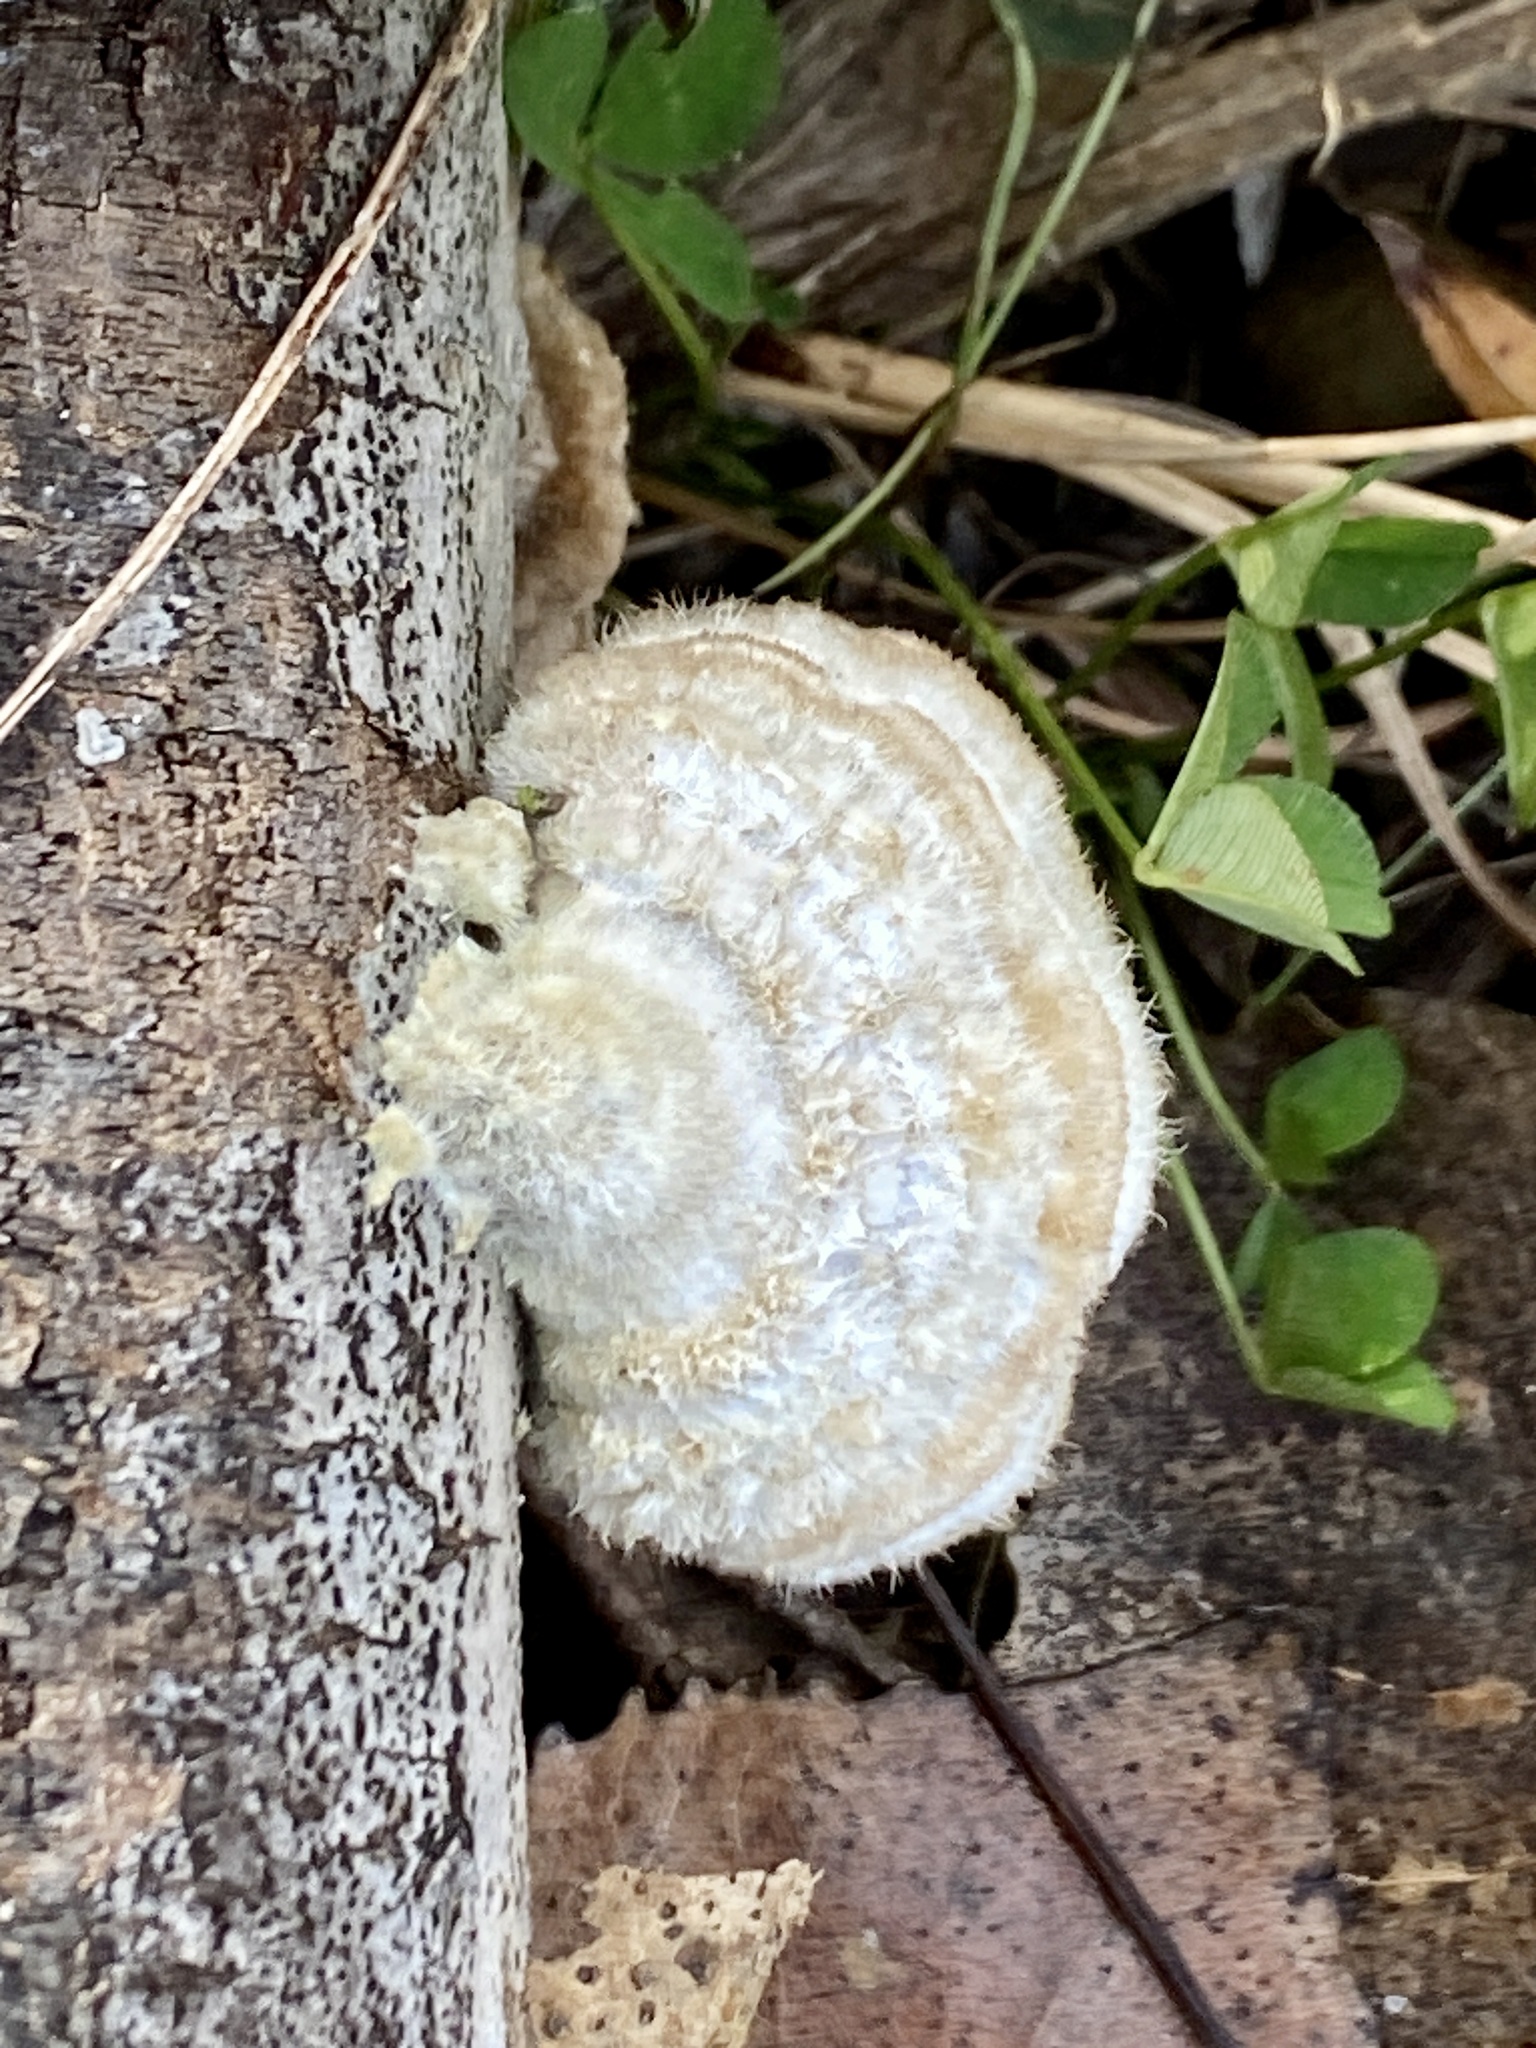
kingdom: Fungi
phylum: Basidiomycota
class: Agaricomycetes
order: Polyporales
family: Polyporaceae
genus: Trametes
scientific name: Trametes hirsuta
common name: Hairy bracket
